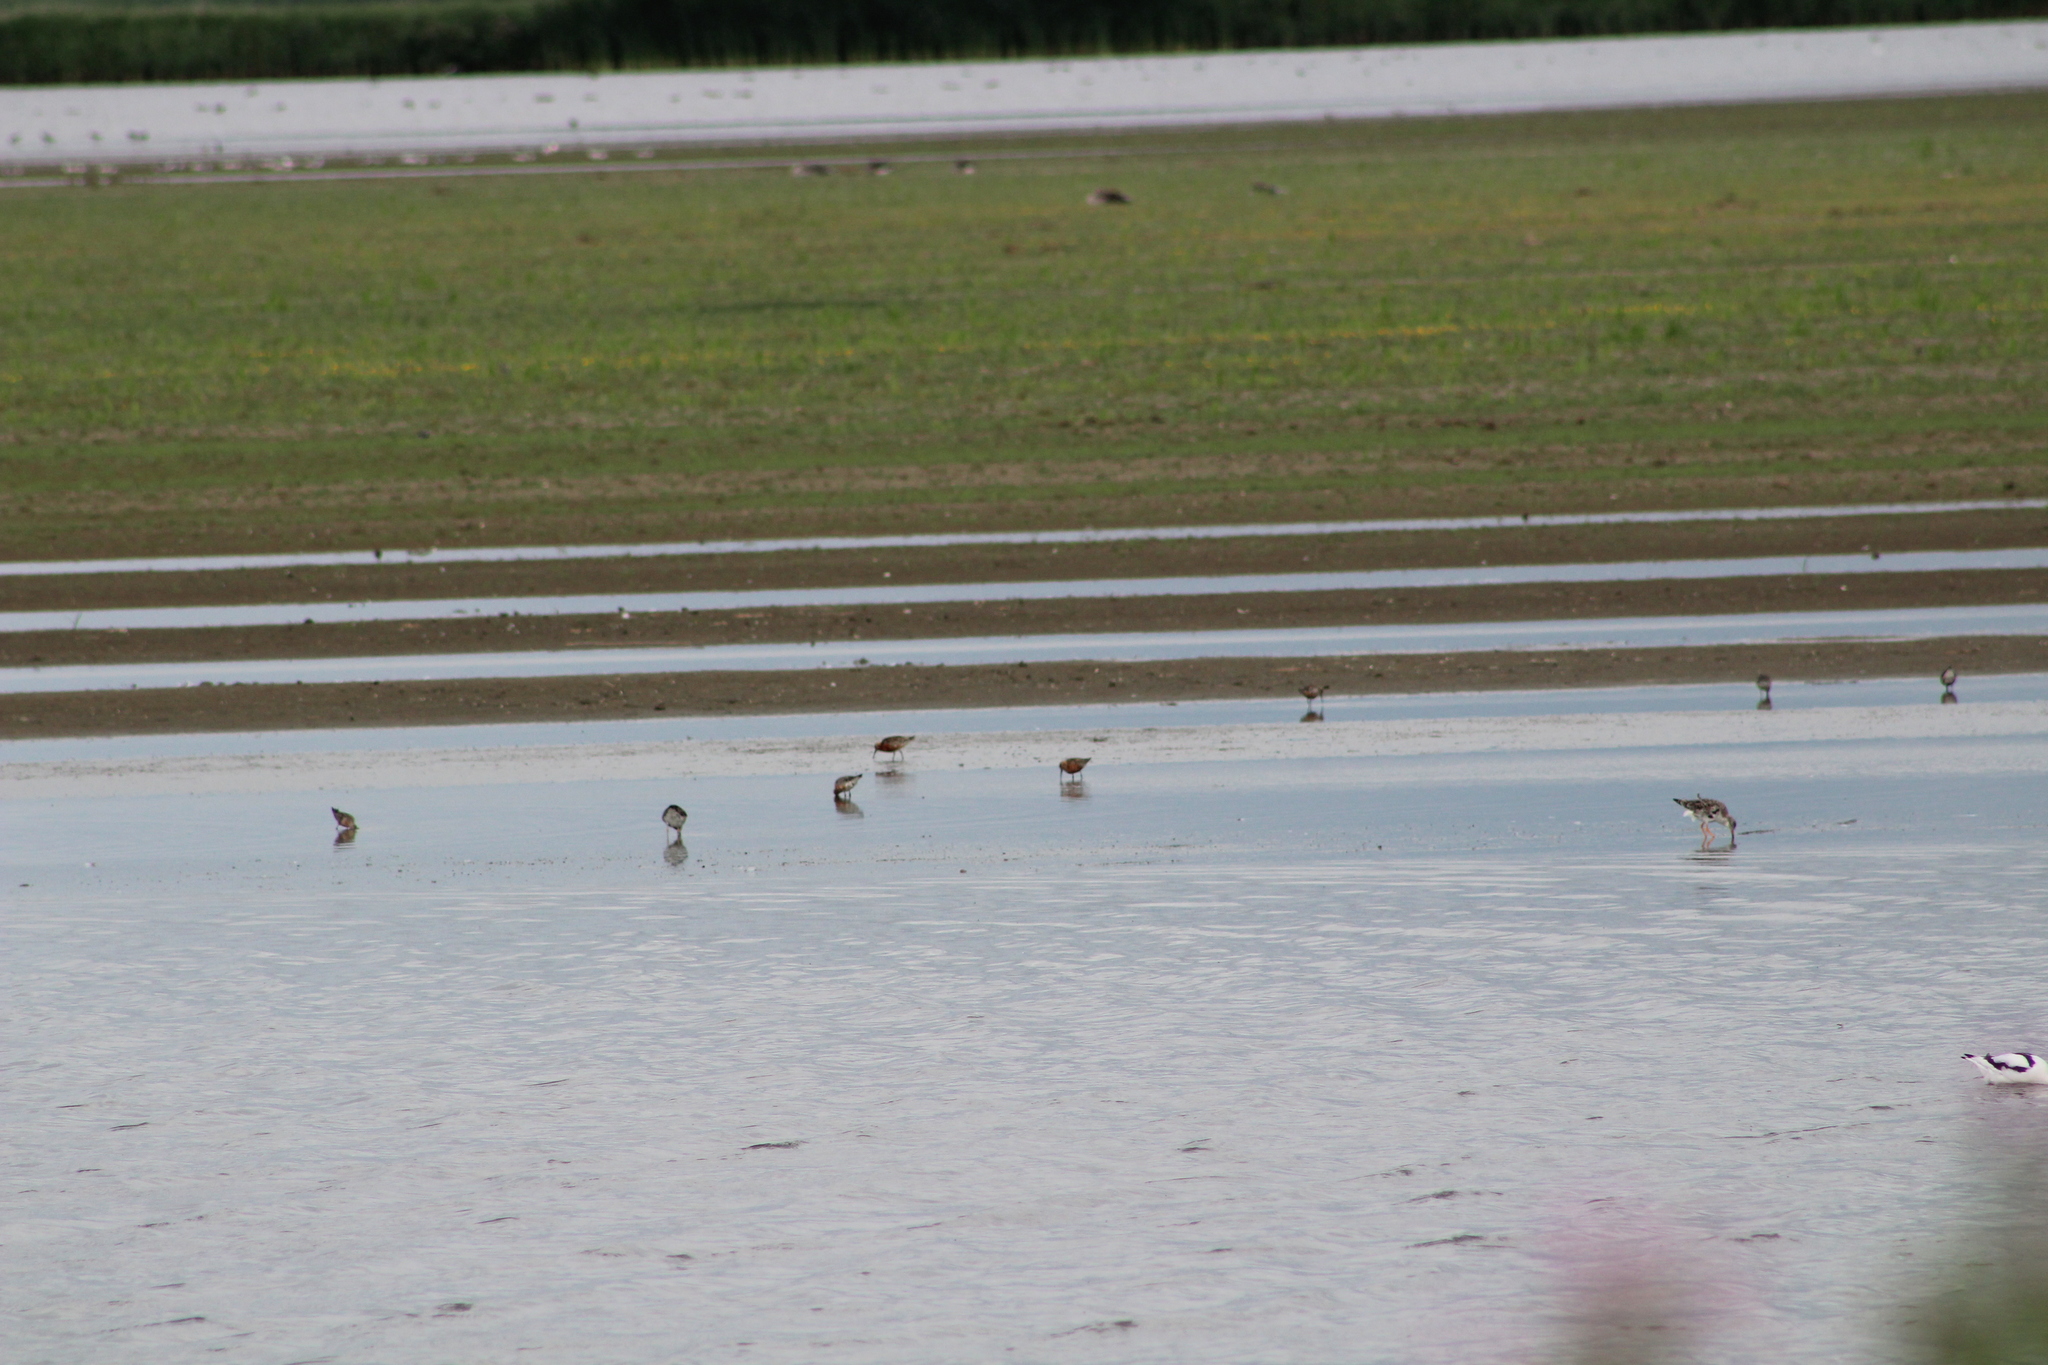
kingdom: Animalia
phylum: Chordata
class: Aves
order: Charadriiformes
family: Scolopacidae
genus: Calidris
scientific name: Calidris canutus
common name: Red knot
